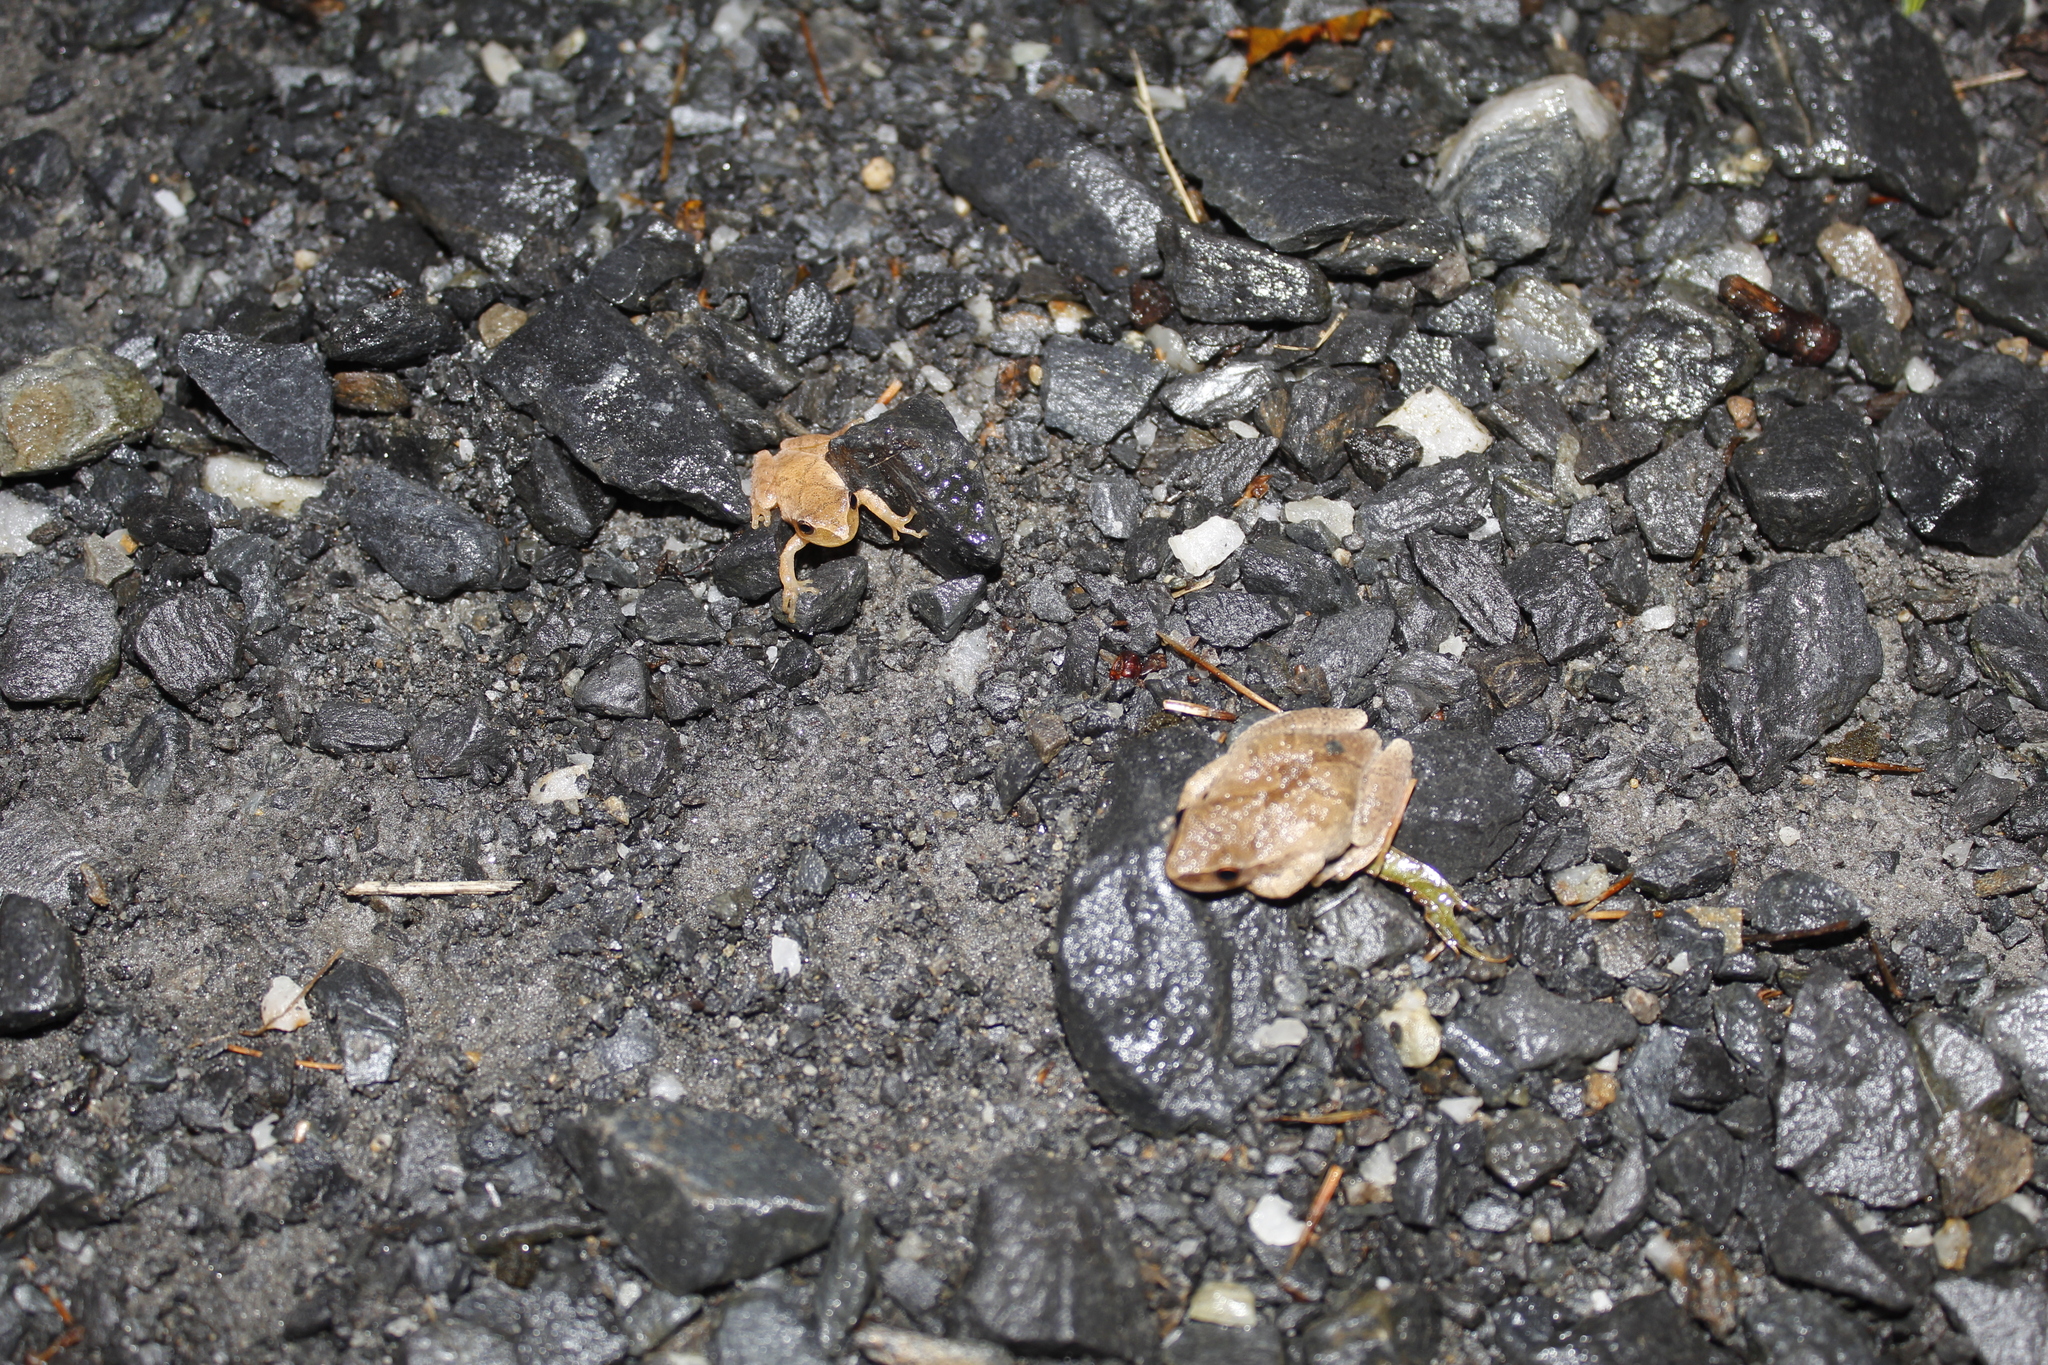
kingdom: Animalia
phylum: Chordata
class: Amphibia
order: Anura
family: Hylidae
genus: Pseudacris
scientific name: Pseudacris crucifer
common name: Spring peeper
